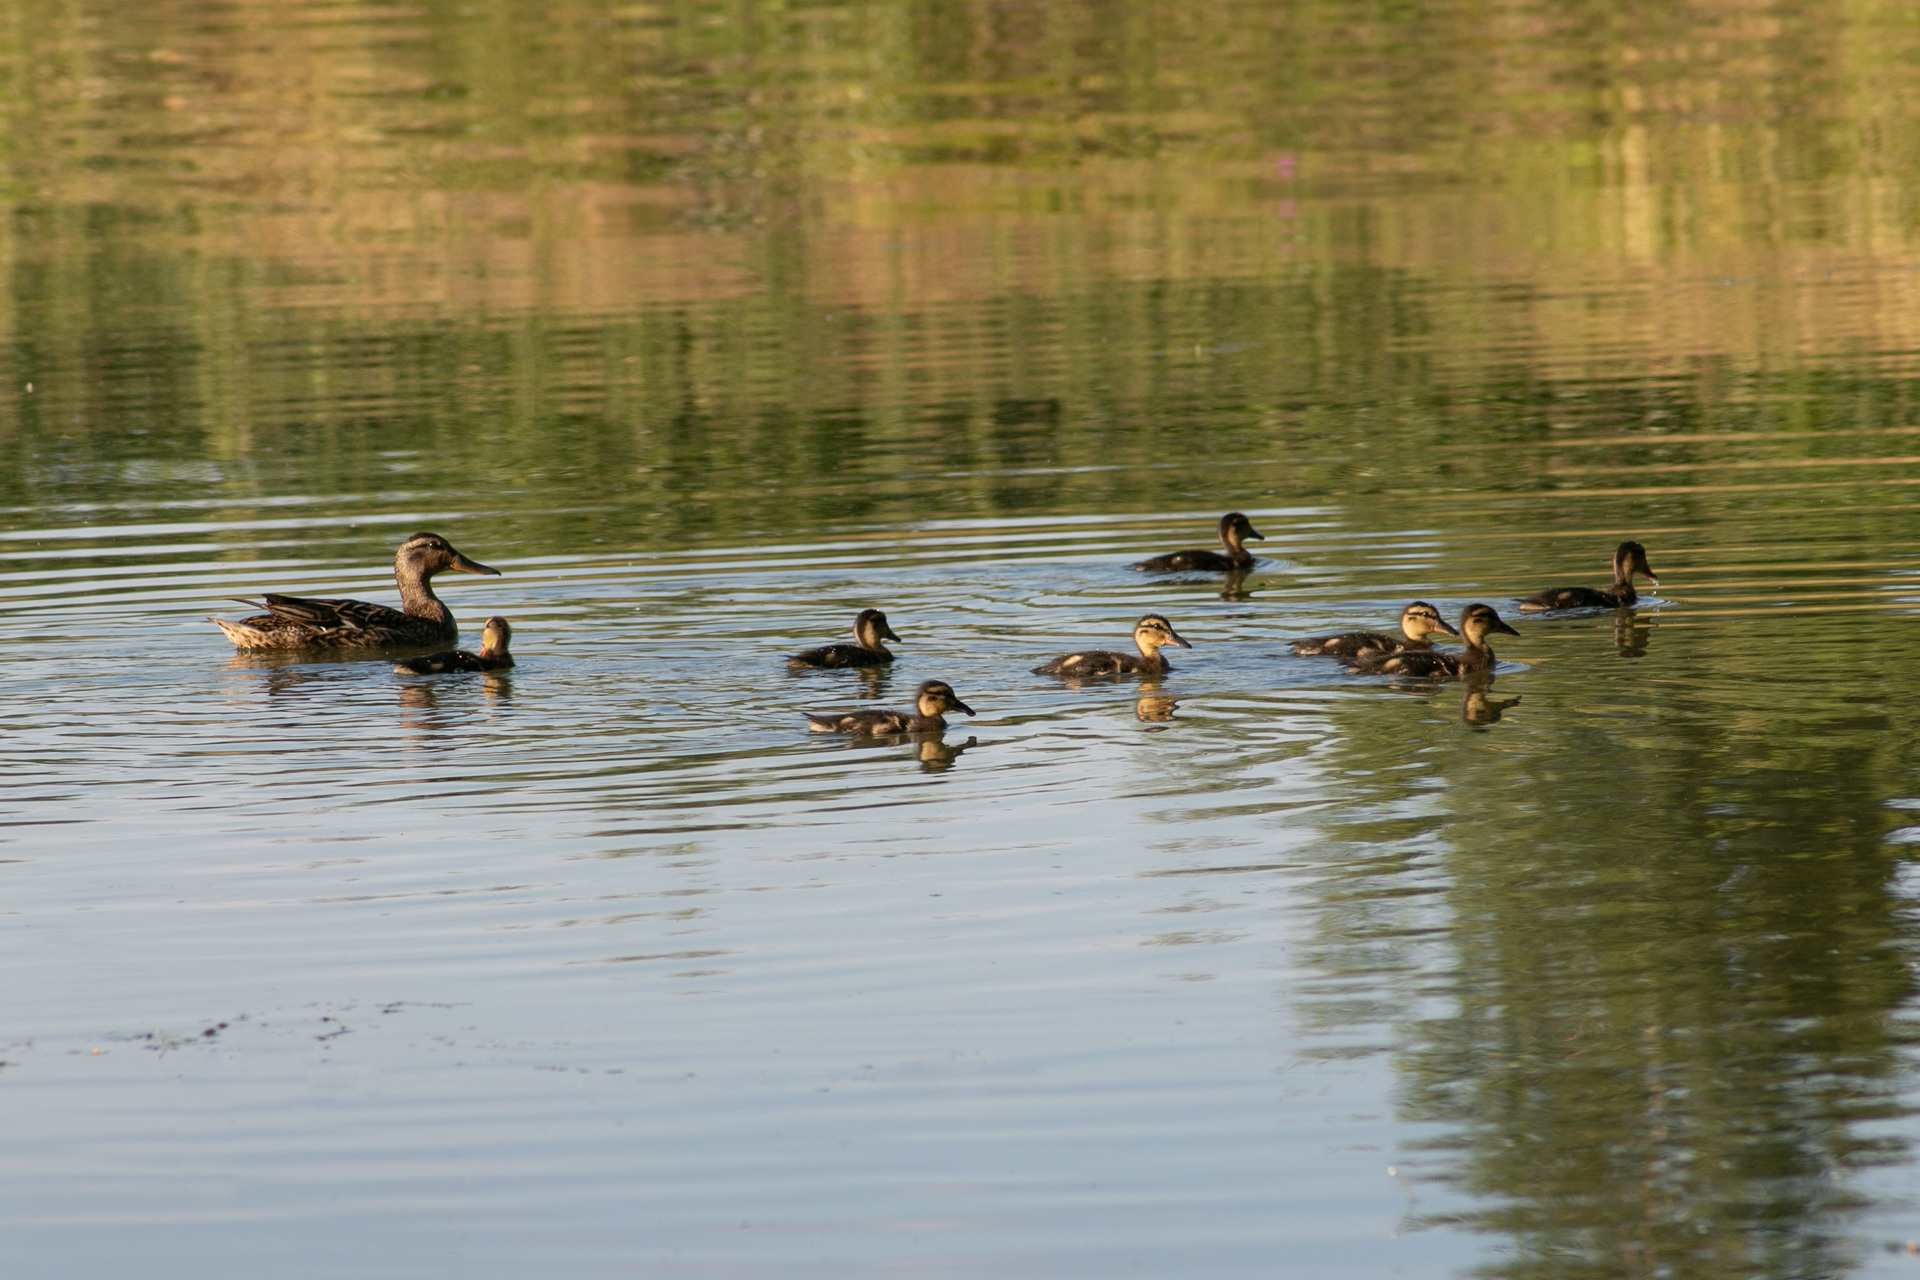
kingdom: Animalia
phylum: Chordata
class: Aves
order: Anseriformes
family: Anatidae
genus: Anas
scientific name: Anas platyrhynchos
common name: Mallard
